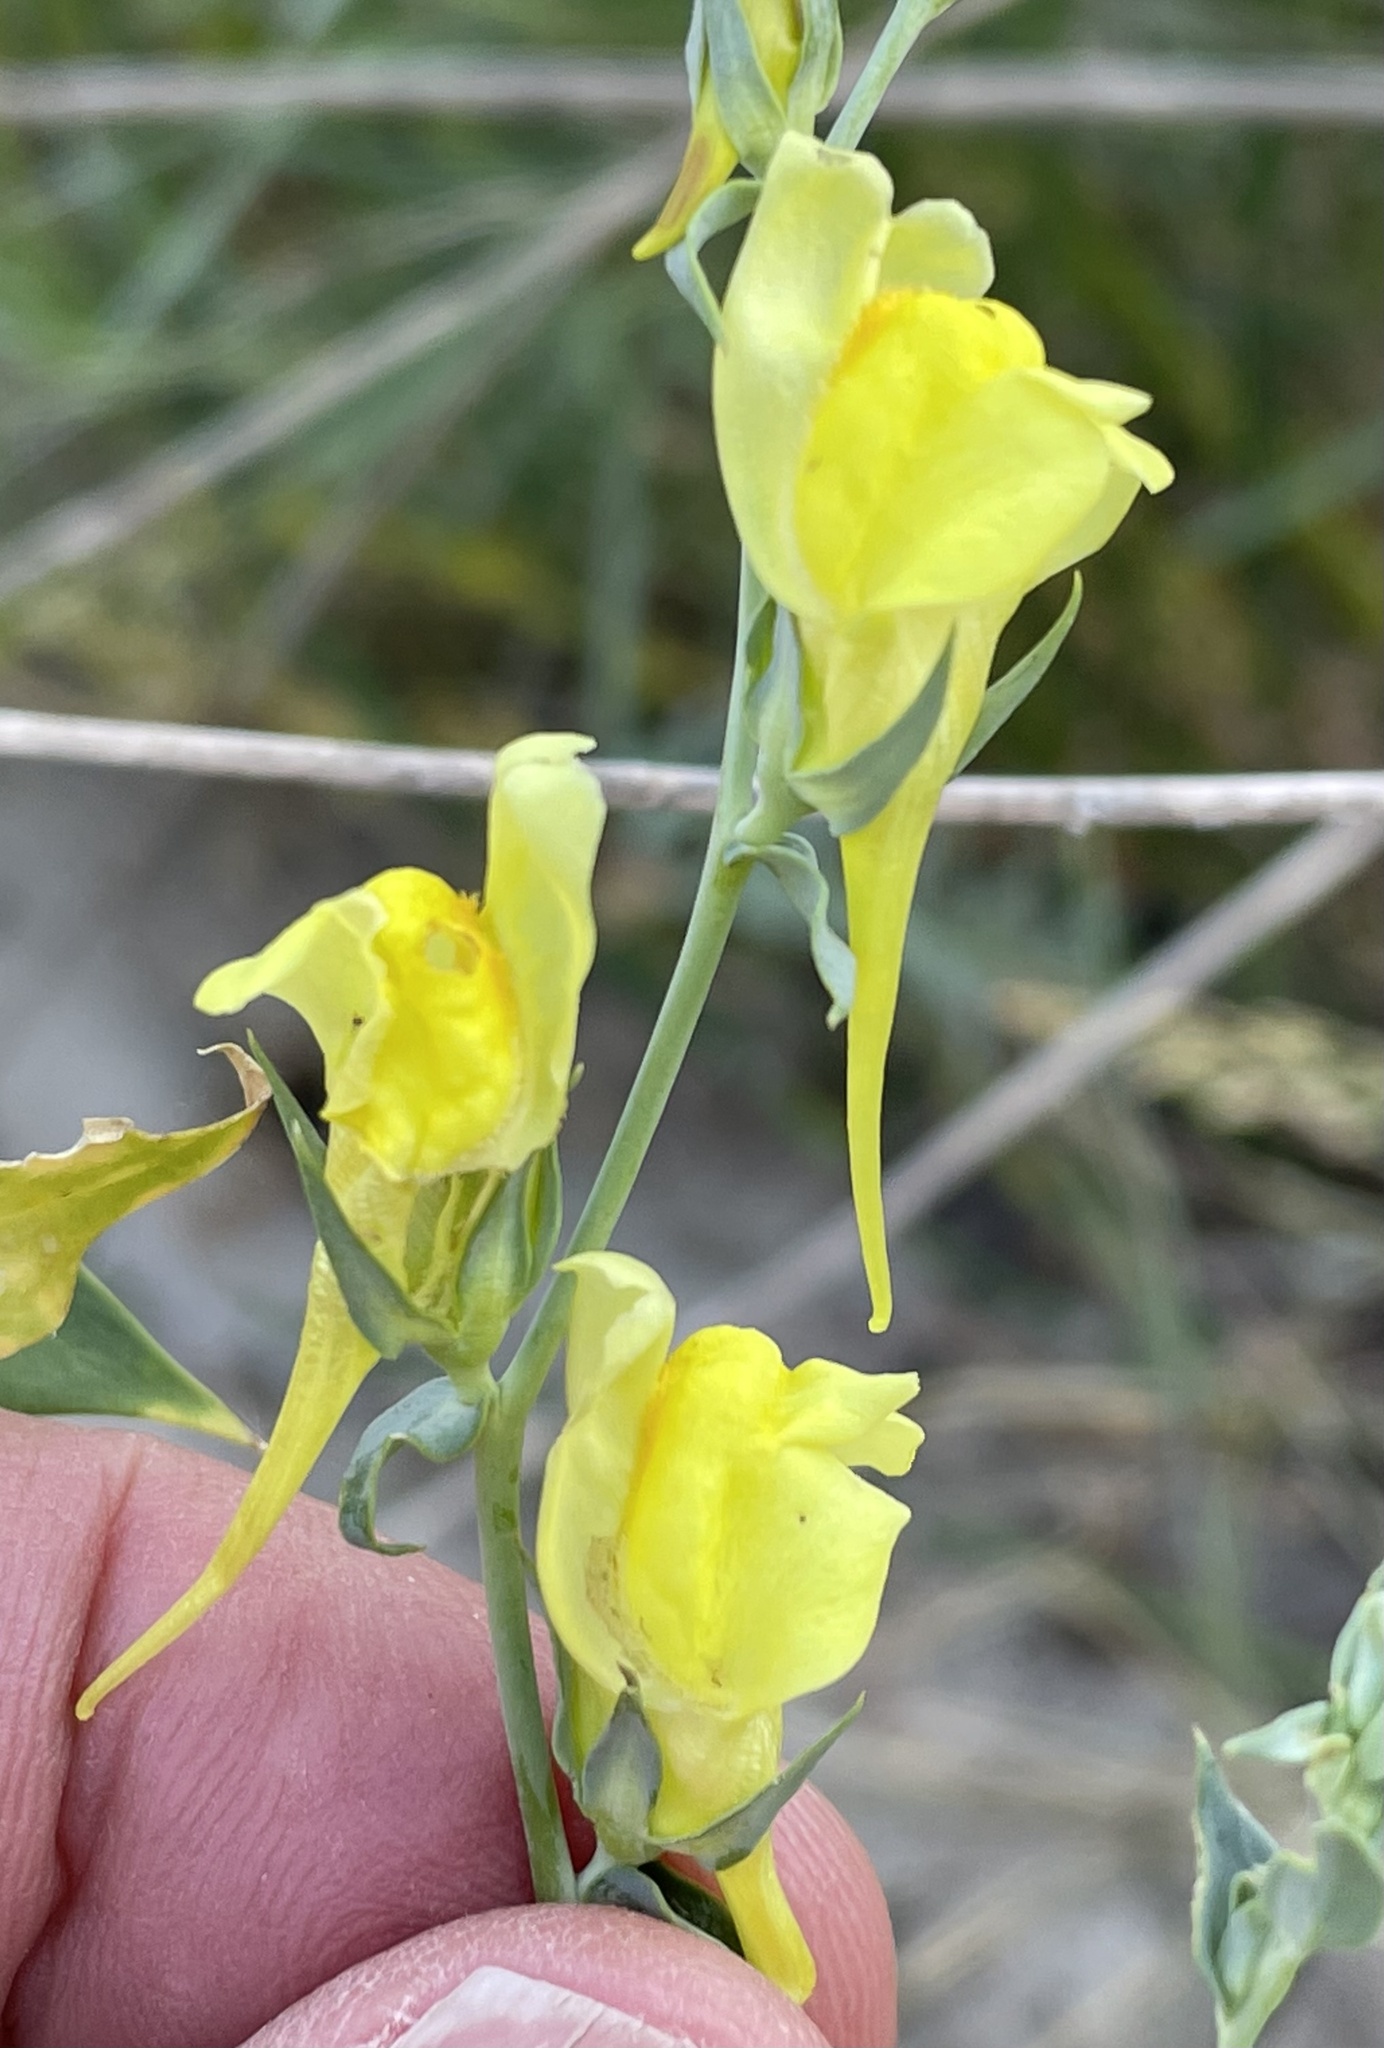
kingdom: Plantae
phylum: Tracheophyta
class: Magnoliopsida
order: Lamiales
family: Plantaginaceae
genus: Linaria
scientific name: Linaria dalmatica
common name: Dalmatian toadflax
